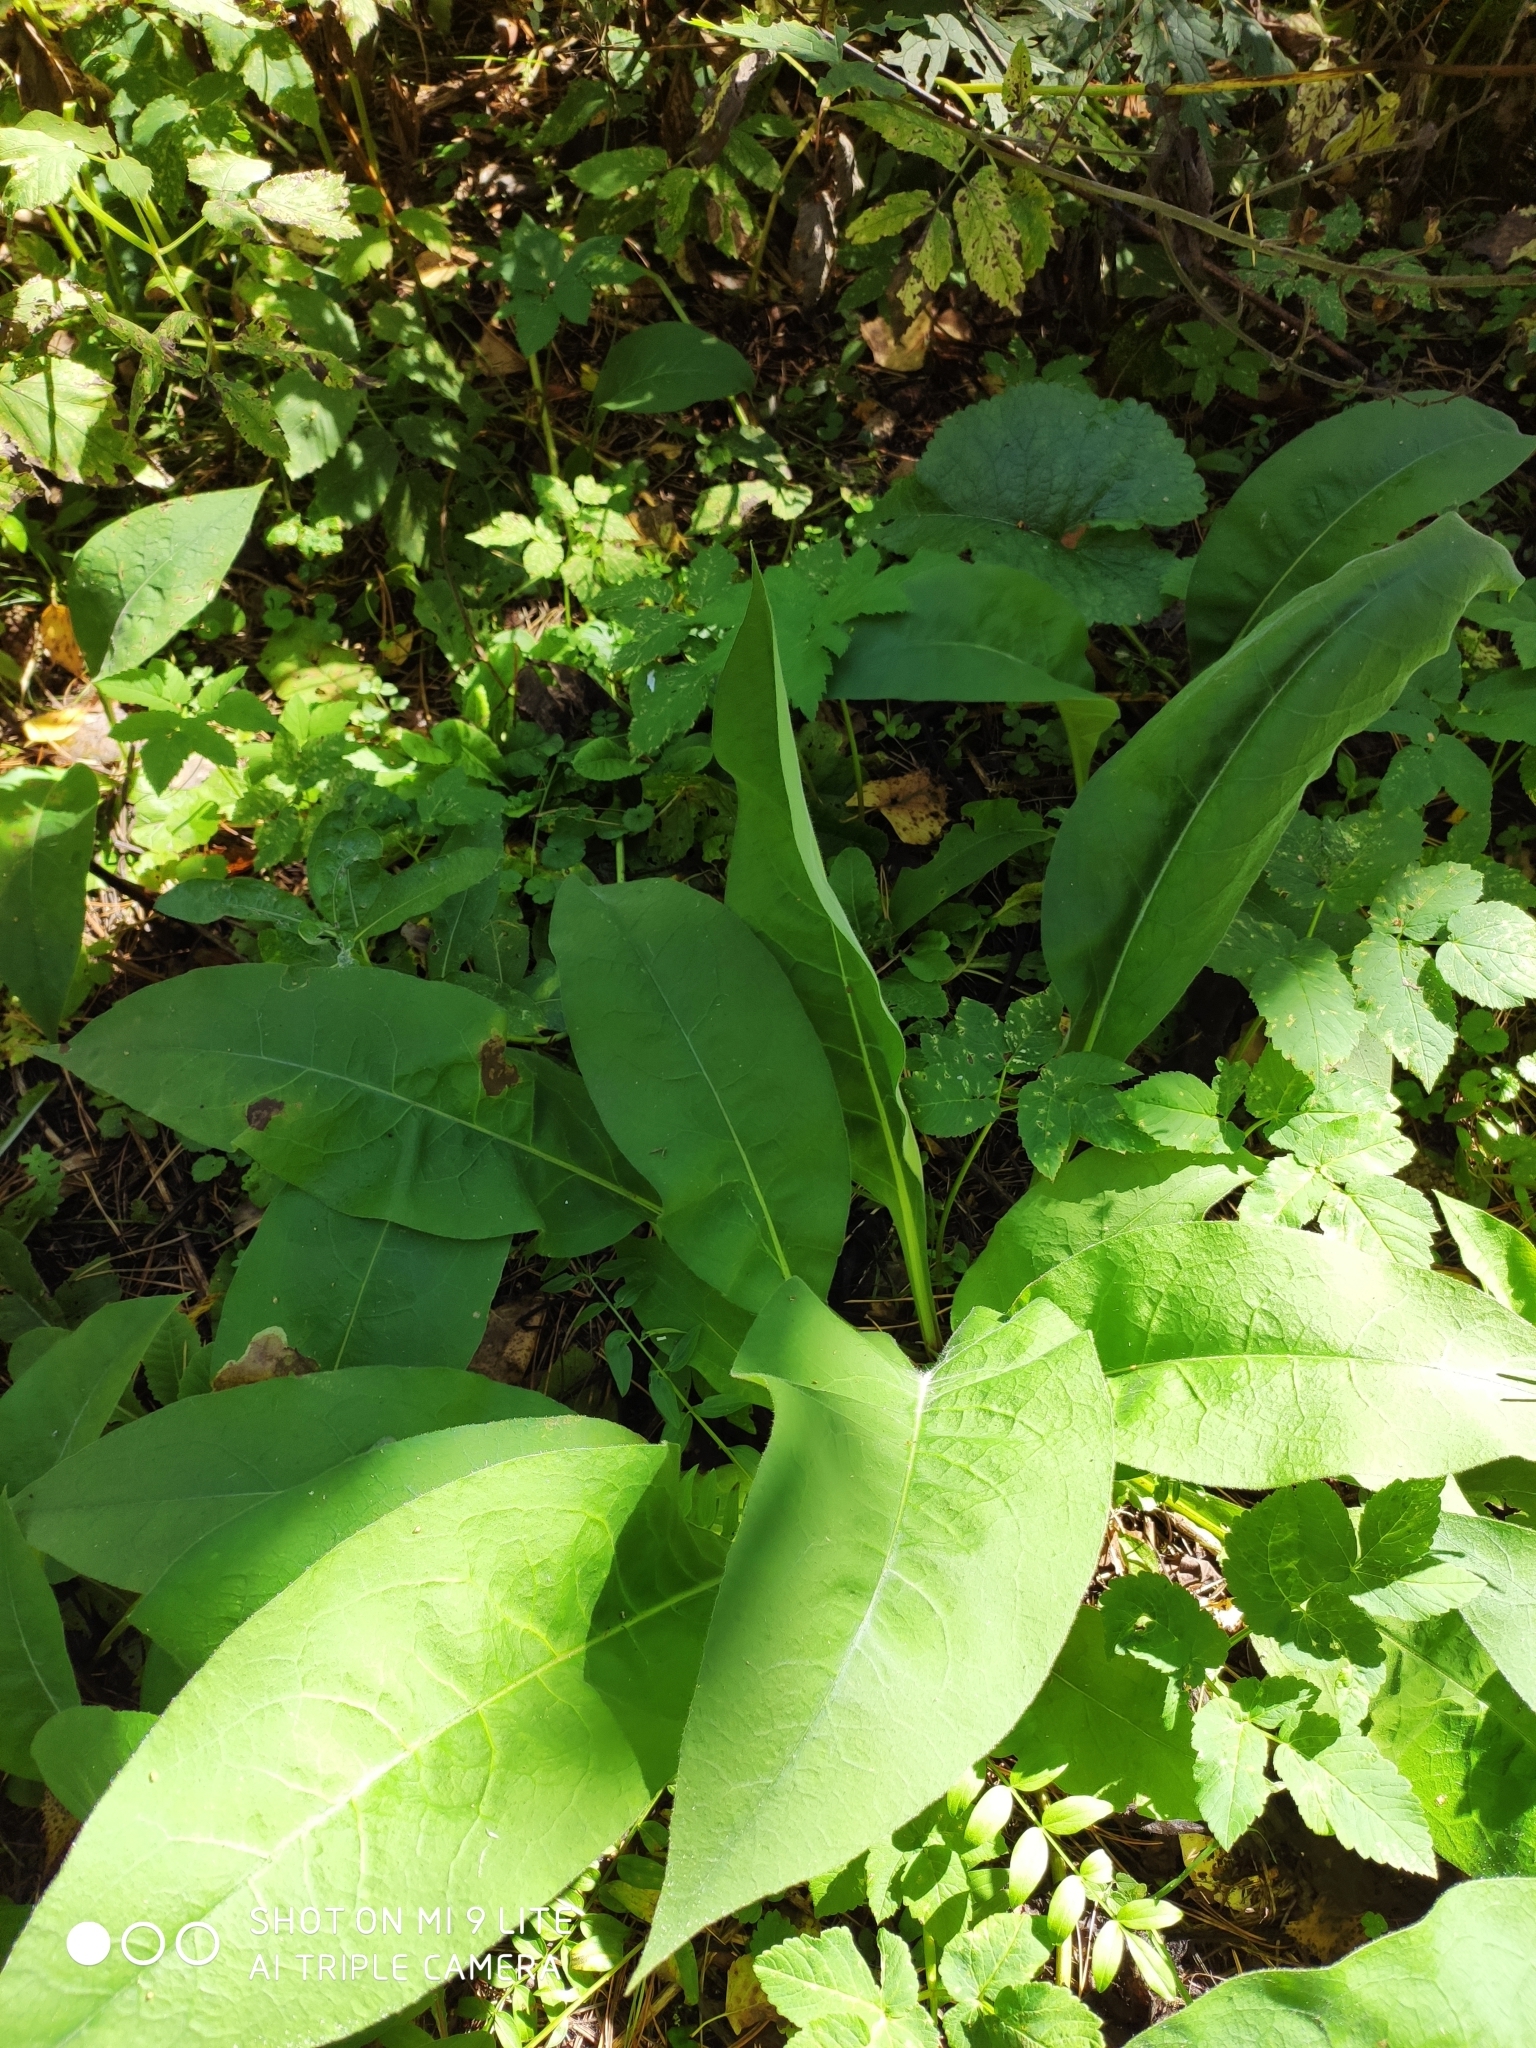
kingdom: Plantae
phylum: Tracheophyta
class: Magnoliopsida
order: Boraginales
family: Boraginaceae
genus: Pulmonaria
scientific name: Pulmonaria mollis
